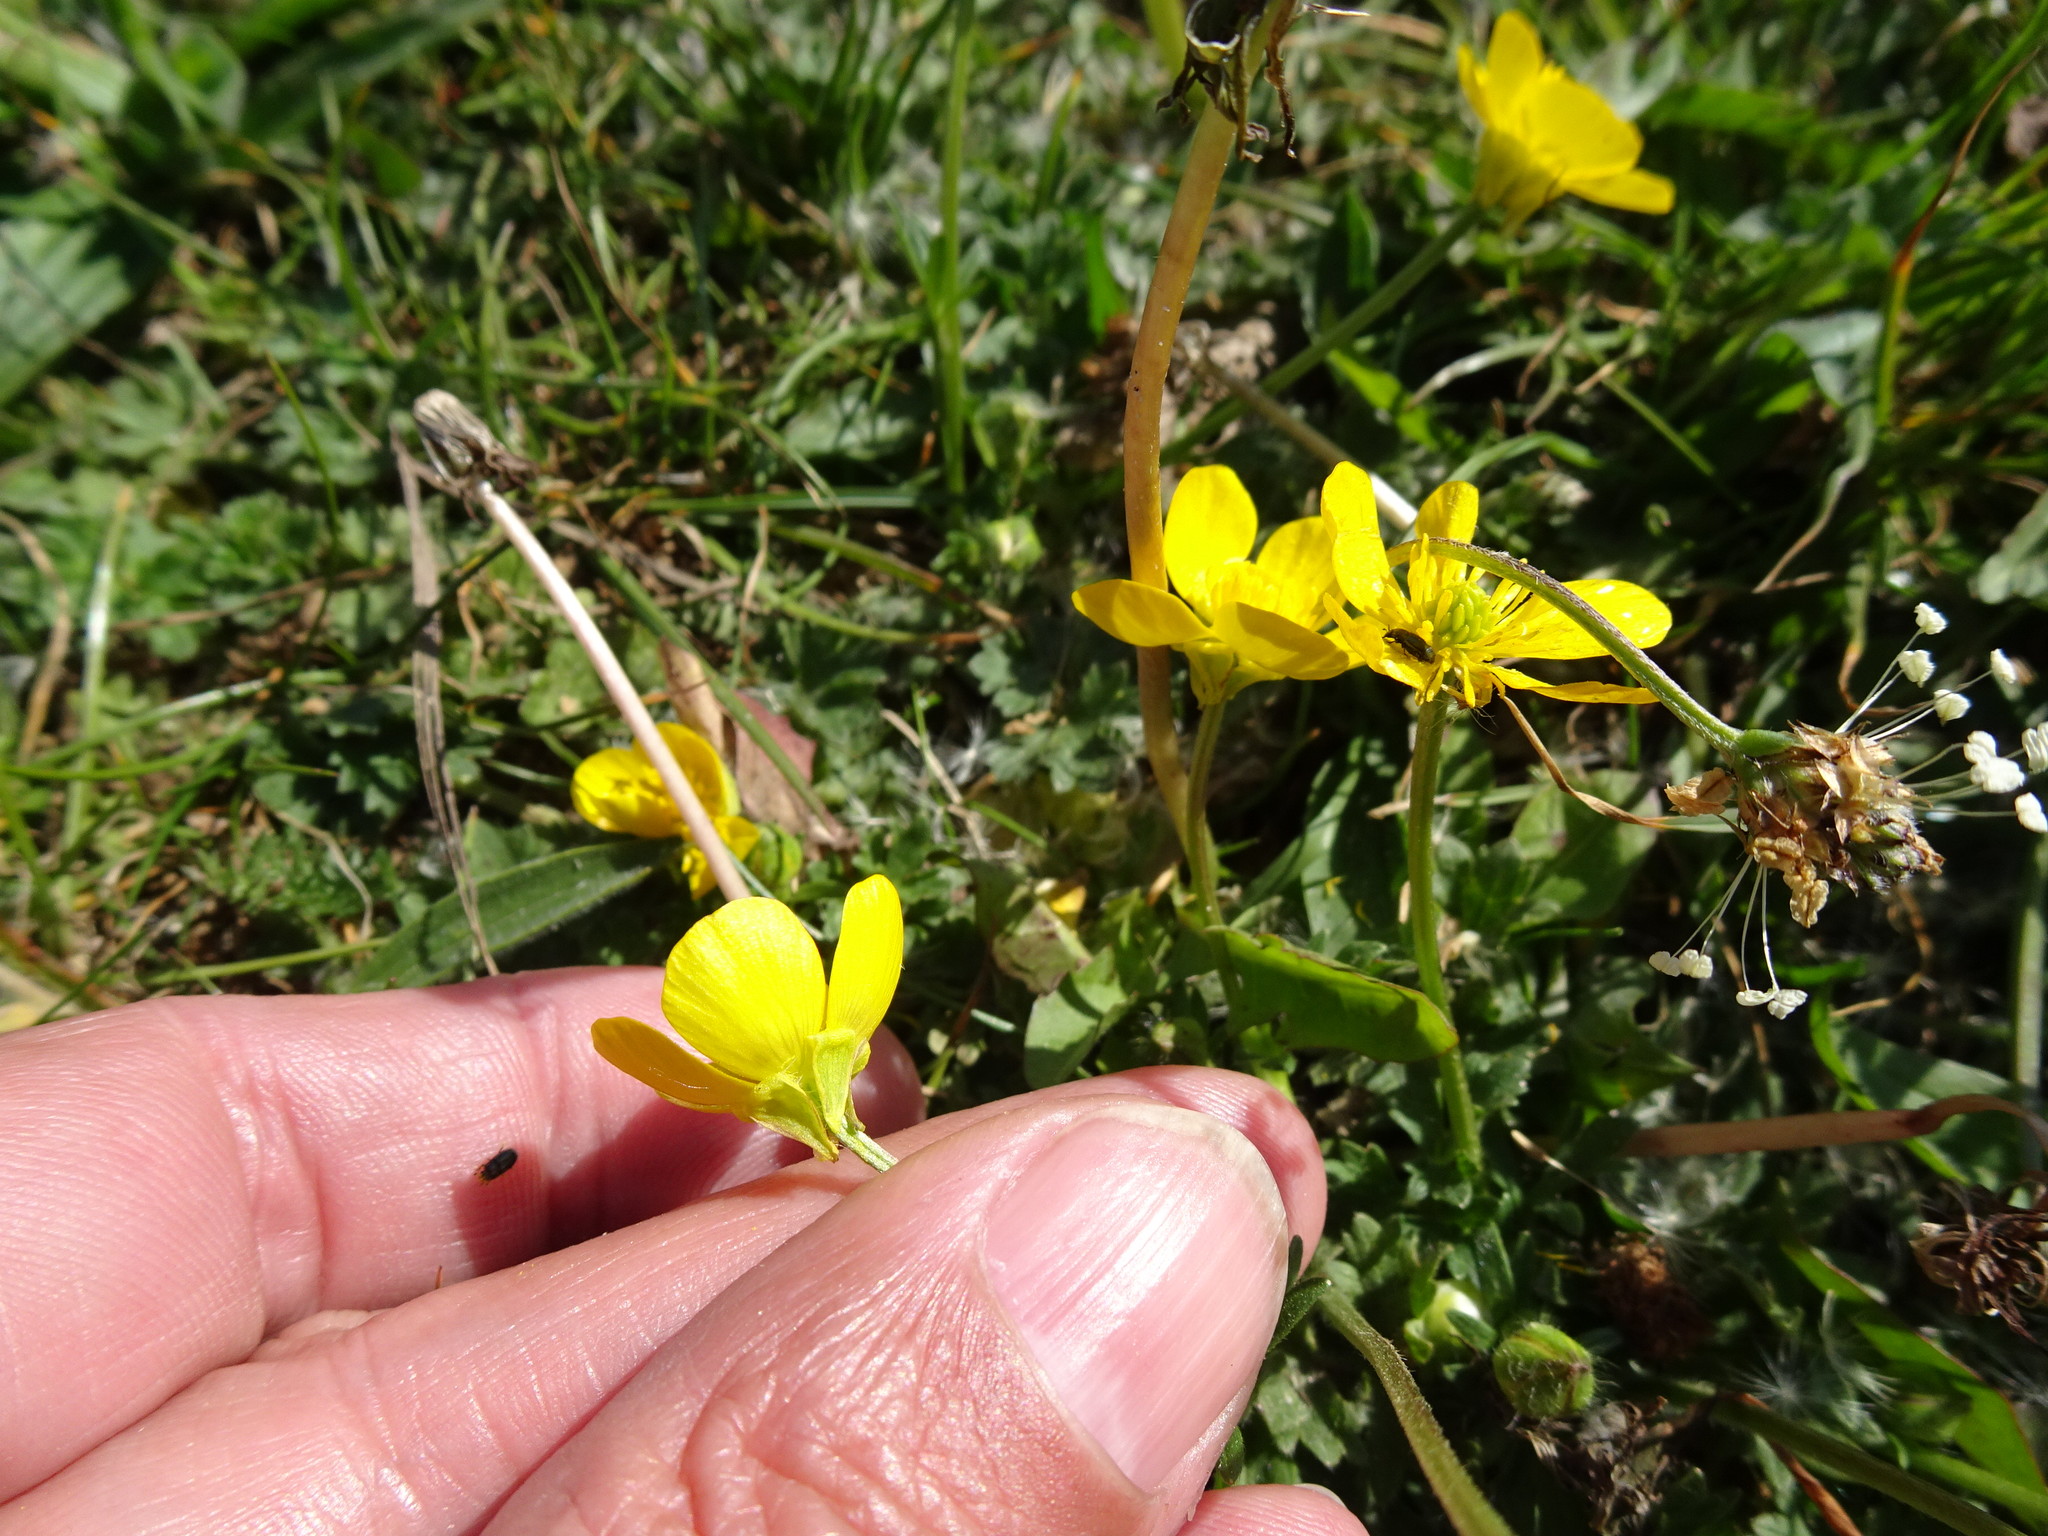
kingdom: Plantae
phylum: Tracheophyta
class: Magnoliopsida
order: Ranunculales
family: Ranunculaceae
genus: Ranunculus
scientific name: Ranunculus bulbosus
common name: Bulbous buttercup
